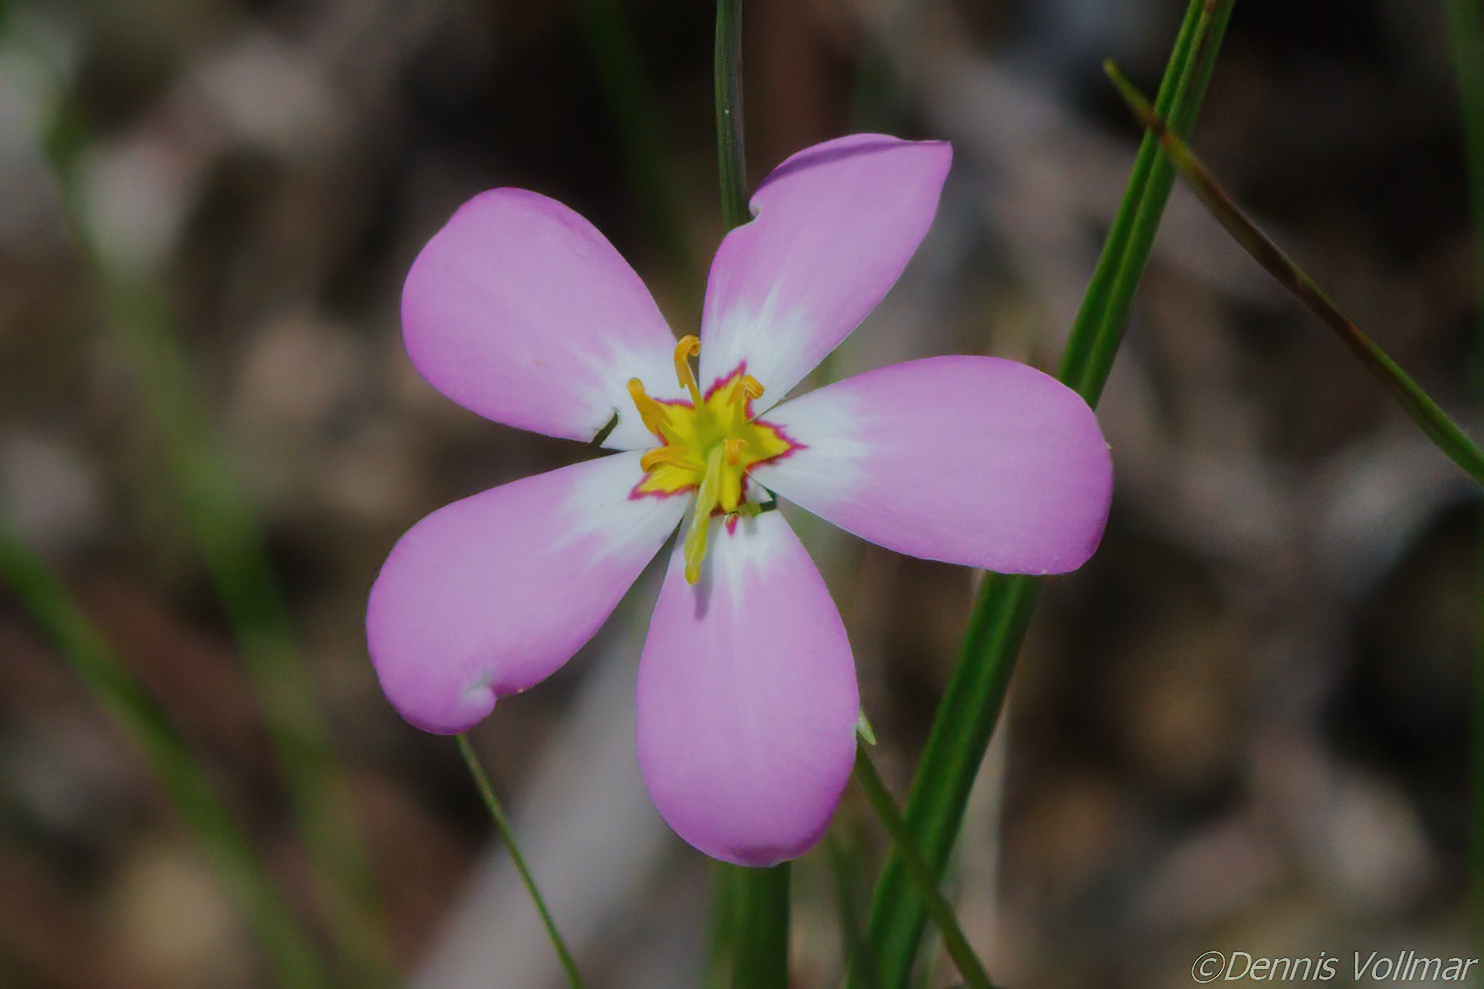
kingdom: Plantae
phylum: Tracheophyta
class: Magnoliopsida
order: Gentianales
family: Gentianaceae
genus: Sabatia
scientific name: Sabatia stellaris
